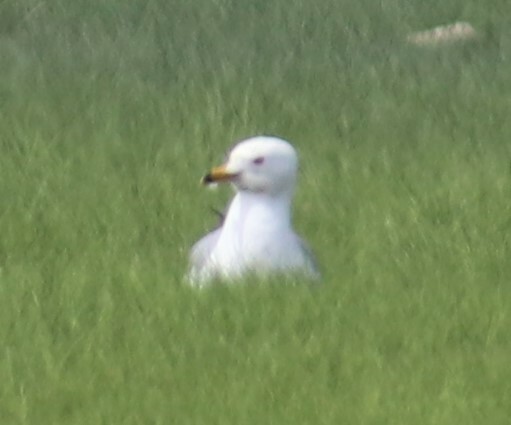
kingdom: Animalia
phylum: Chordata
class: Aves
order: Charadriiformes
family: Laridae
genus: Larus
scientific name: Larus delawarensis
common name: Ring-billed gull
